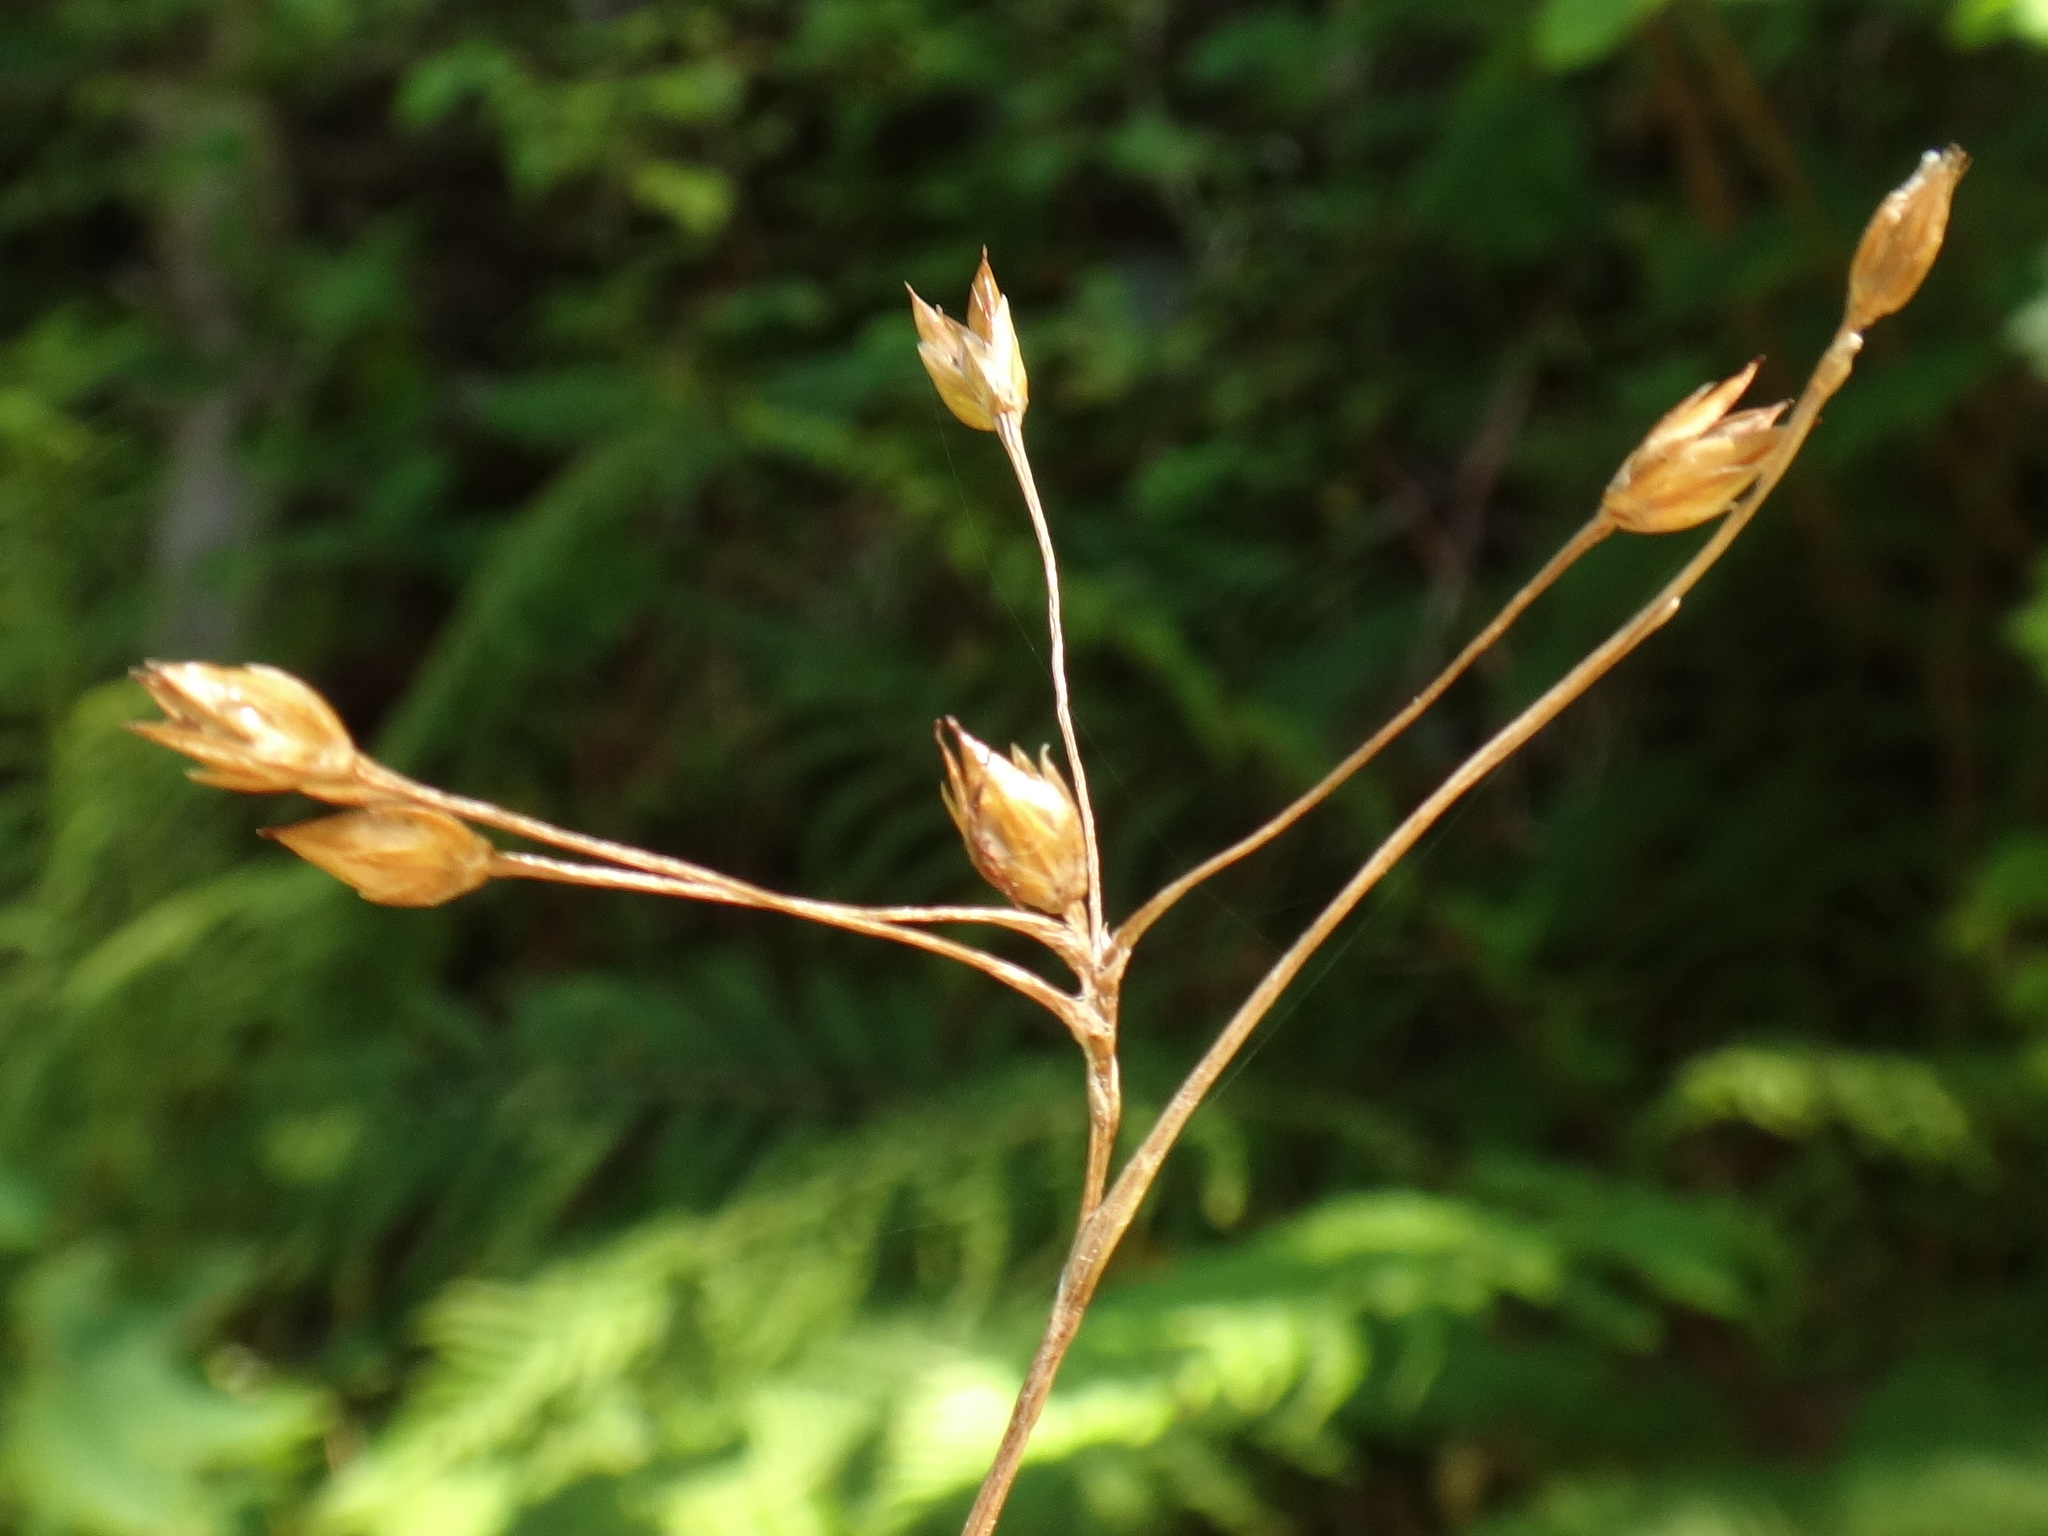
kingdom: Plantae
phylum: Tracheophyta
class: Liliopsida
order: Poales
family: Juncaceae
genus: Luzula
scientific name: Luzula luzulina
